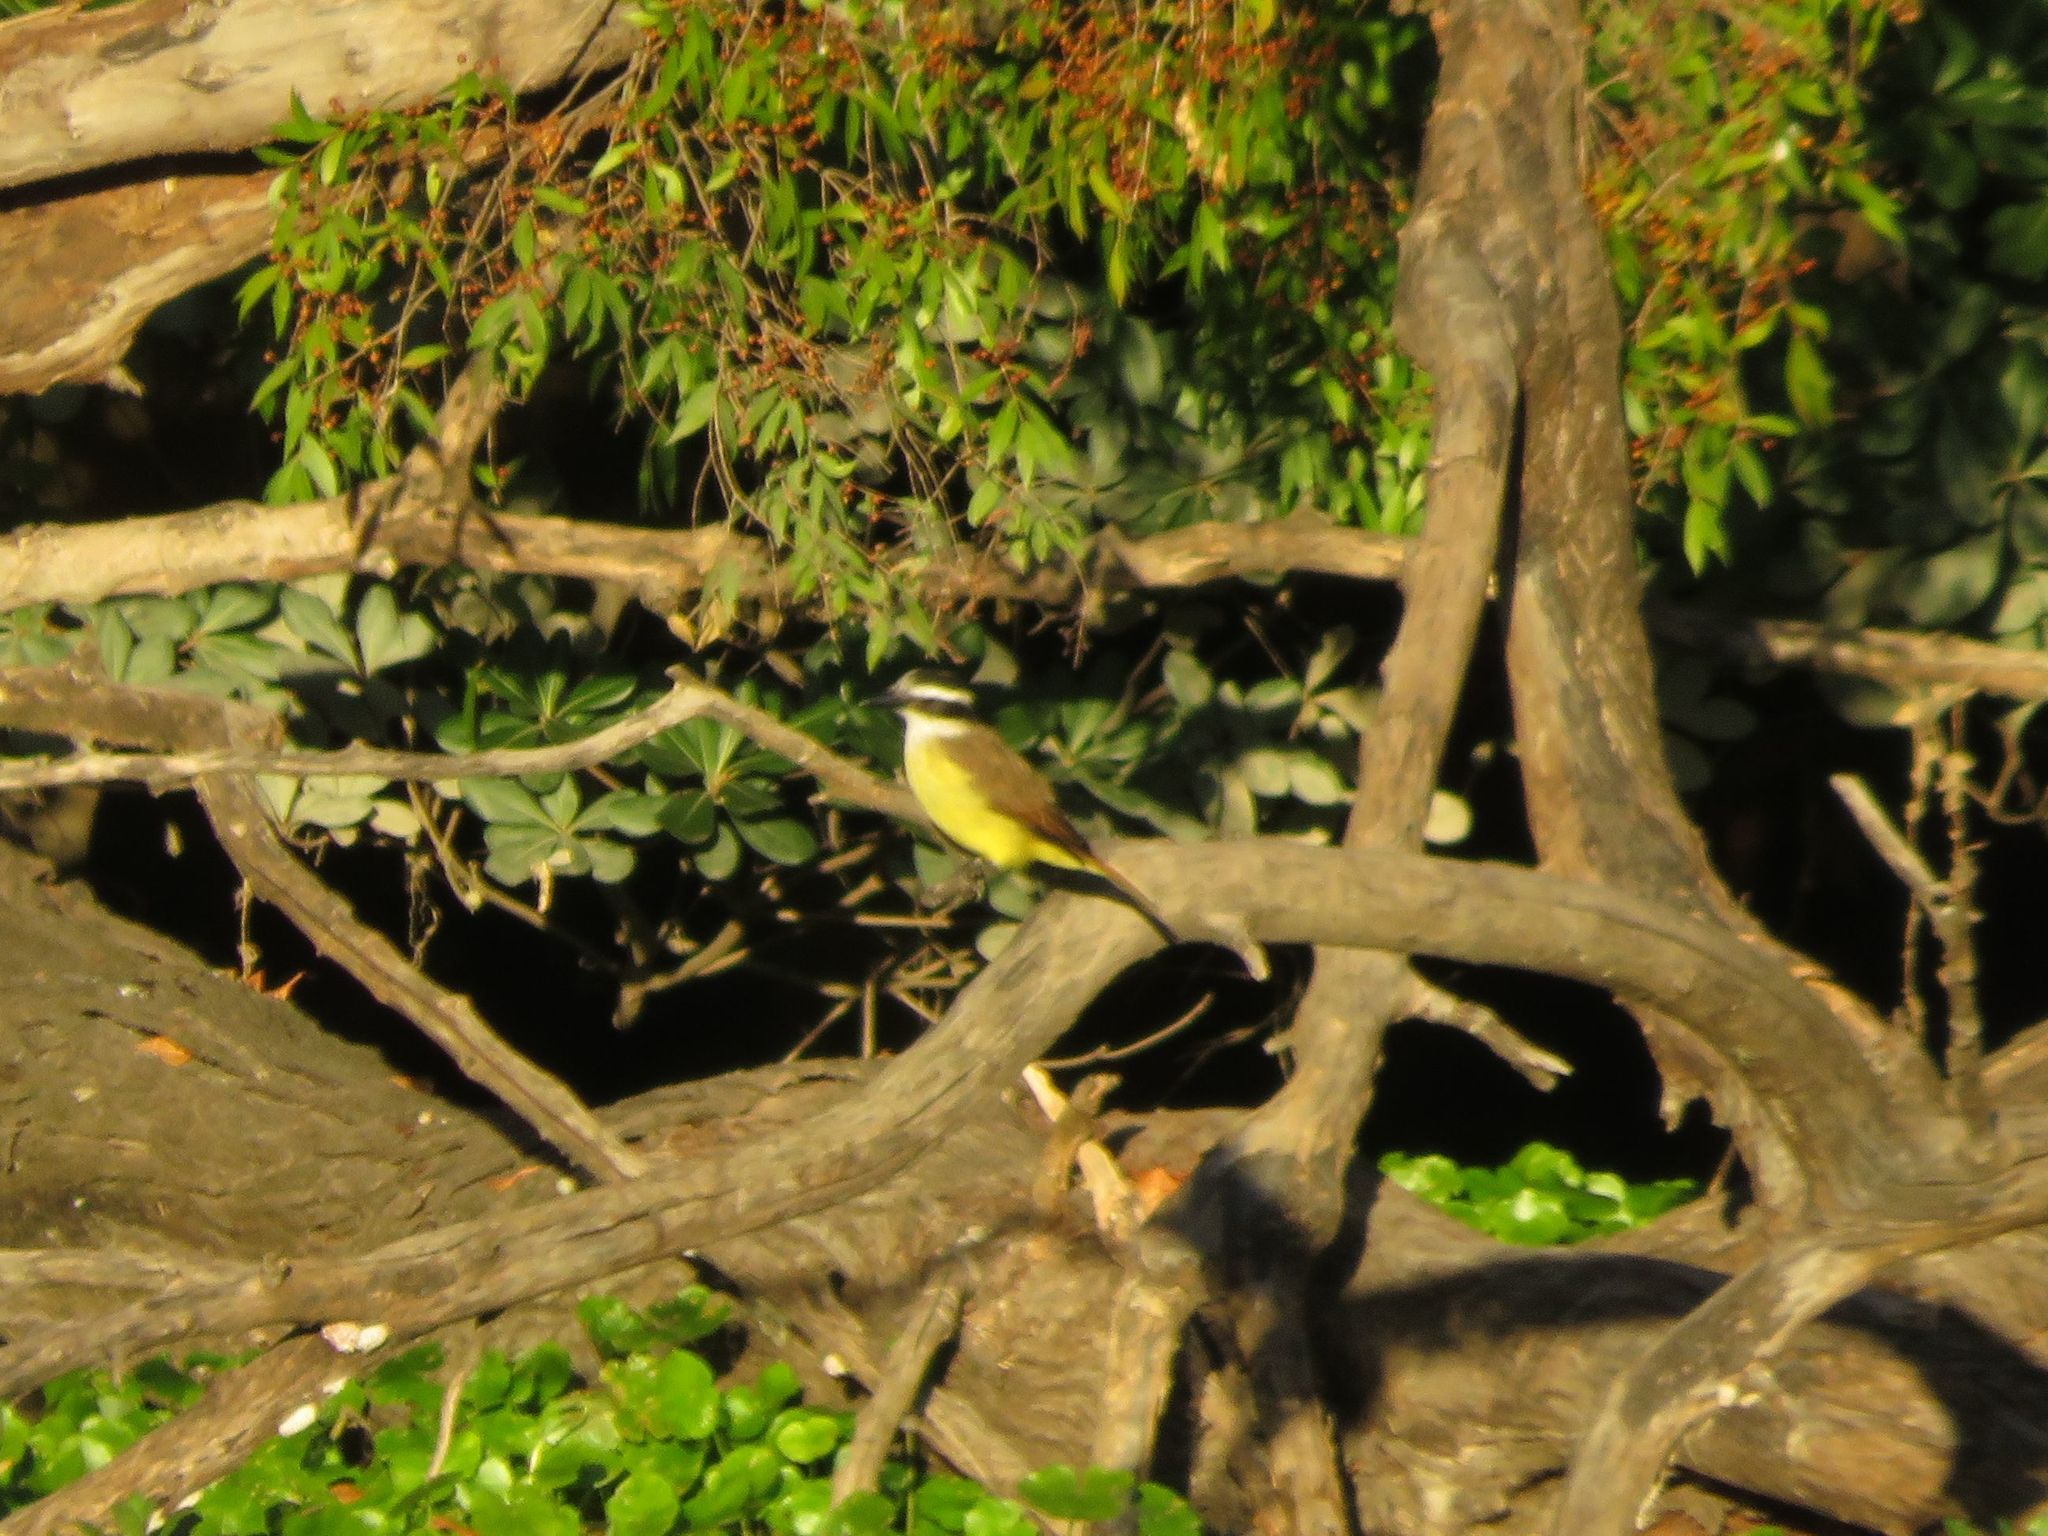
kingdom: Animalia
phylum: Chordata
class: Aves
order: Passeriformes
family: Tyrannidae
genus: Pitangus
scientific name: Pitangus sulphuratus
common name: Great kiskadee
